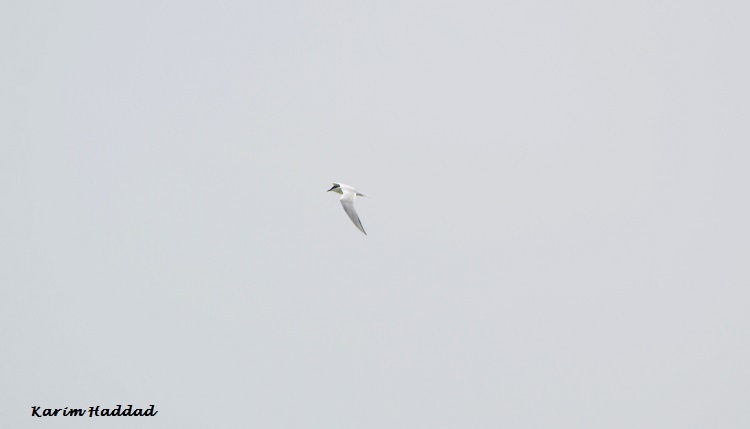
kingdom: Animalia
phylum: Chordata
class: Aves
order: Charadriiformes
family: Laridae
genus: Gelochelidon
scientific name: Gelochelidon nilotica
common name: Gull-billed tern
